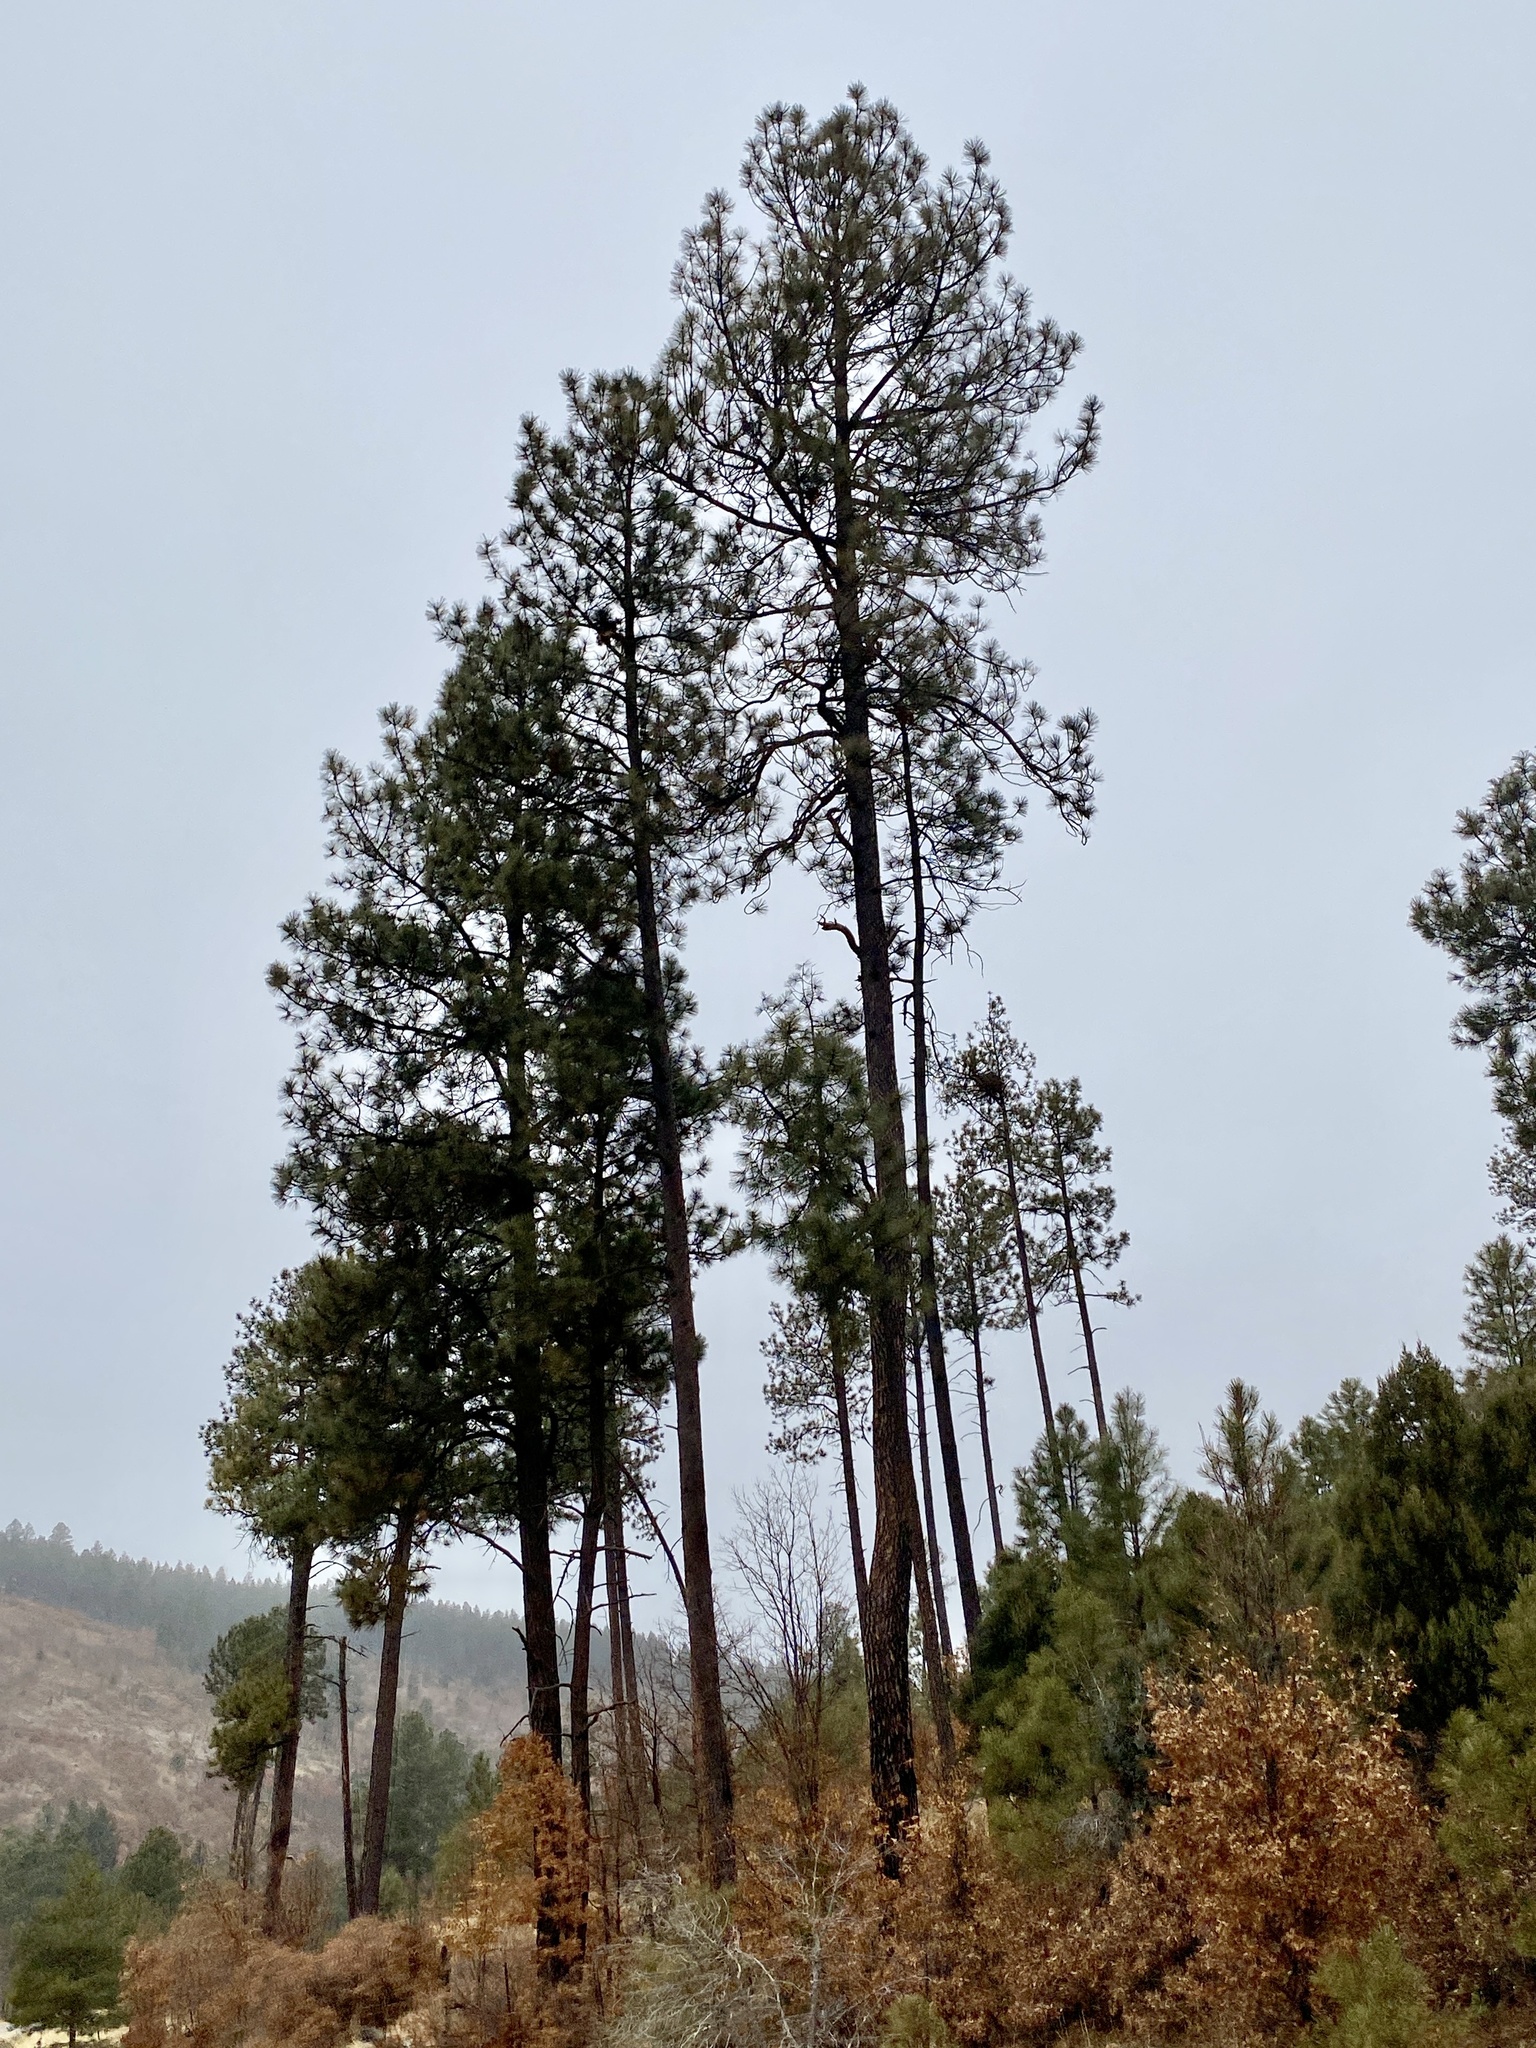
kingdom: Plantae
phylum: Tracheophyta
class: Pinopsida
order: Pinales
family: Pinaceae
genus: Pinus
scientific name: Pinus ponderosa
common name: Western yellow-pine
